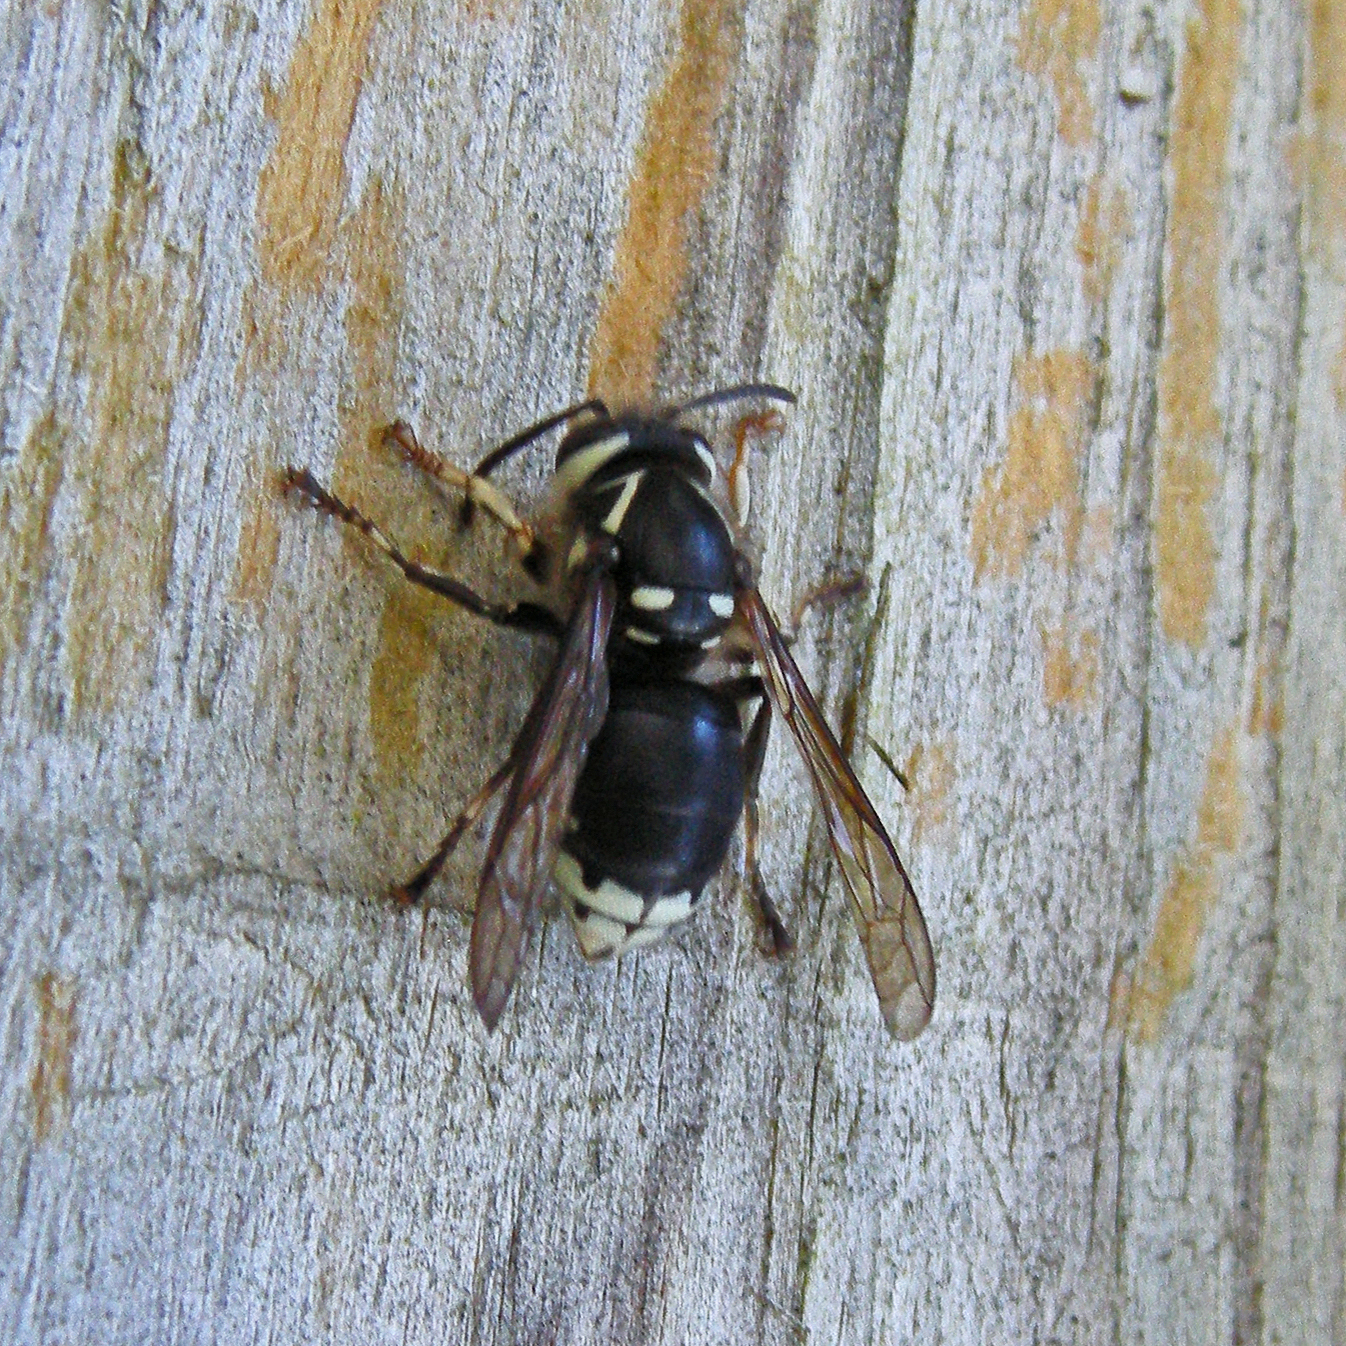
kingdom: Animalia
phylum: Arthropoda
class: Insecta
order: Hymenoptera
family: Vespidae
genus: Dolichovespula
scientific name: Dolichovespula maculata
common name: Bald-faced hornet
